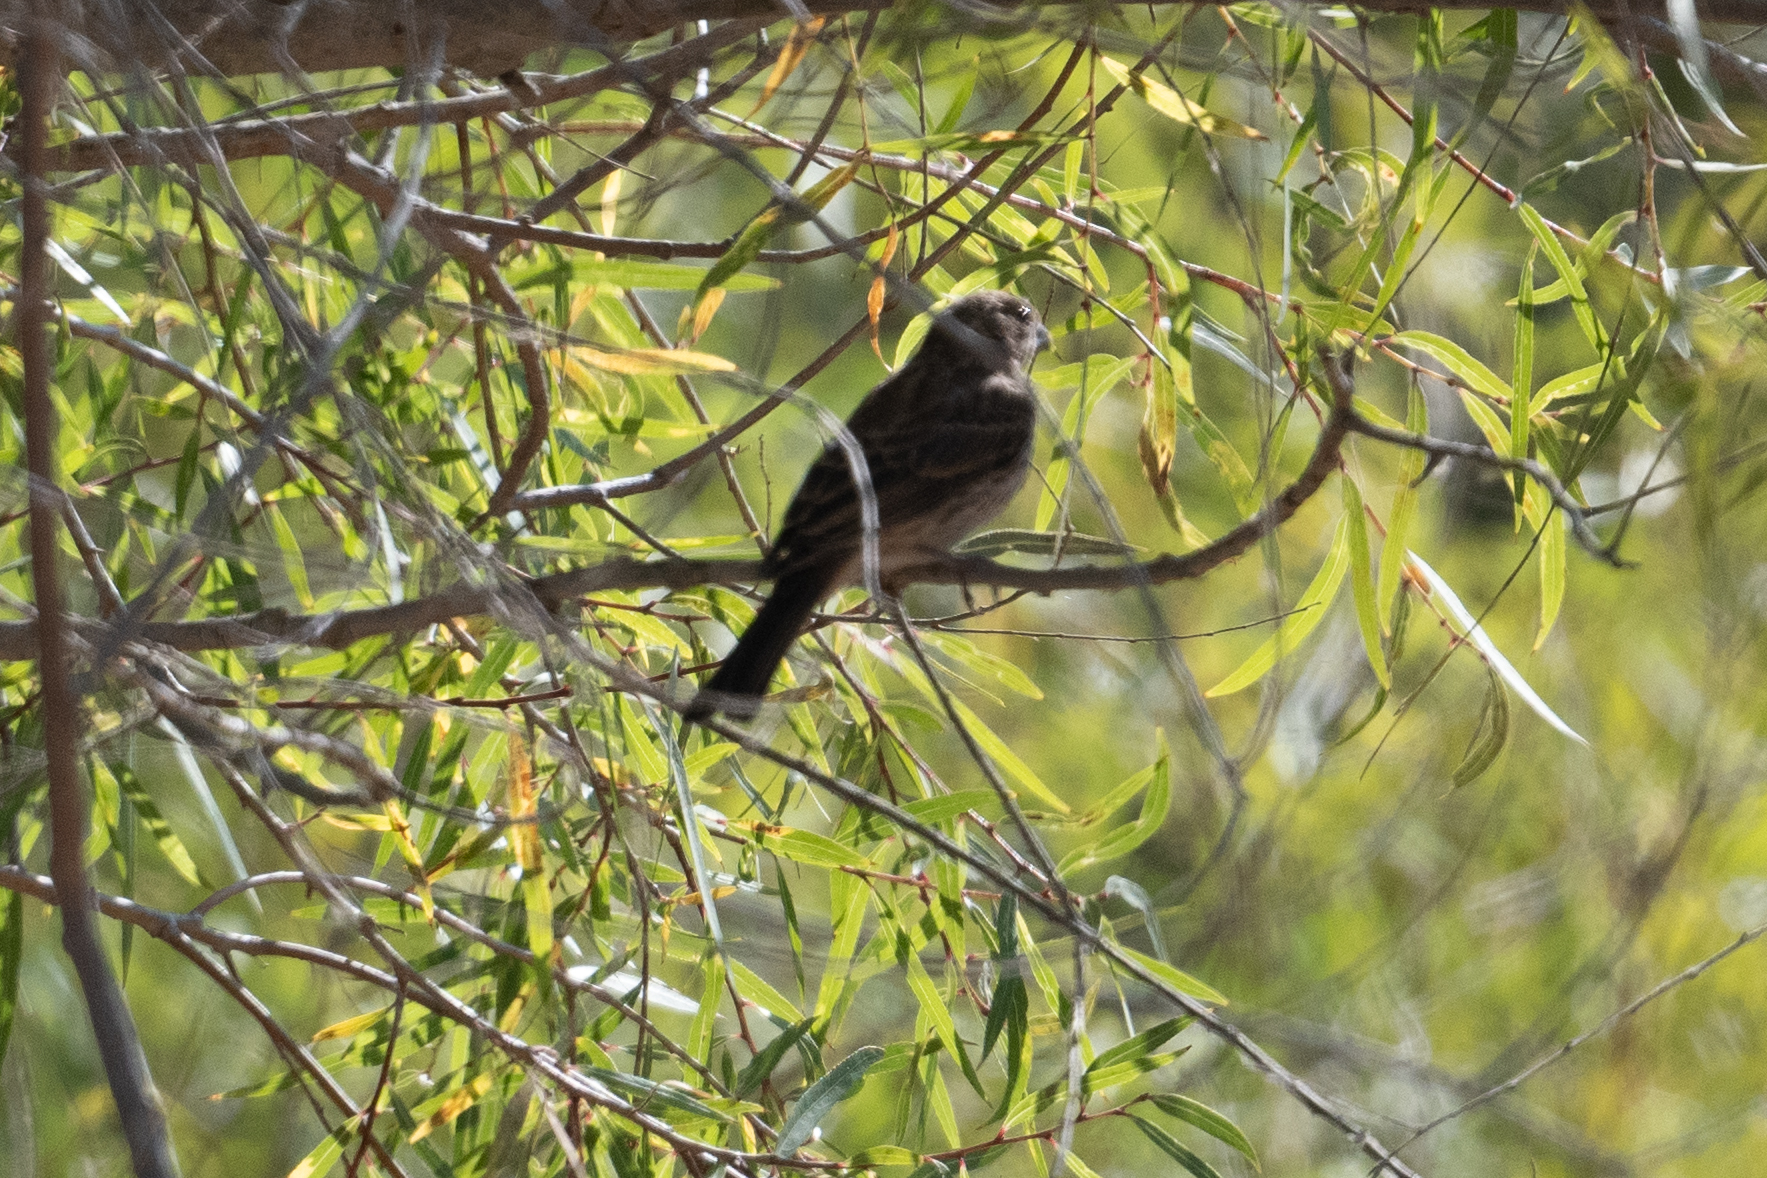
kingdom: Animalia
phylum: Chordata
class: Aves
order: Passeriformes
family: Fringillidae
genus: Haemorhous
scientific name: Haemorhous mexicanus
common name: House finch
